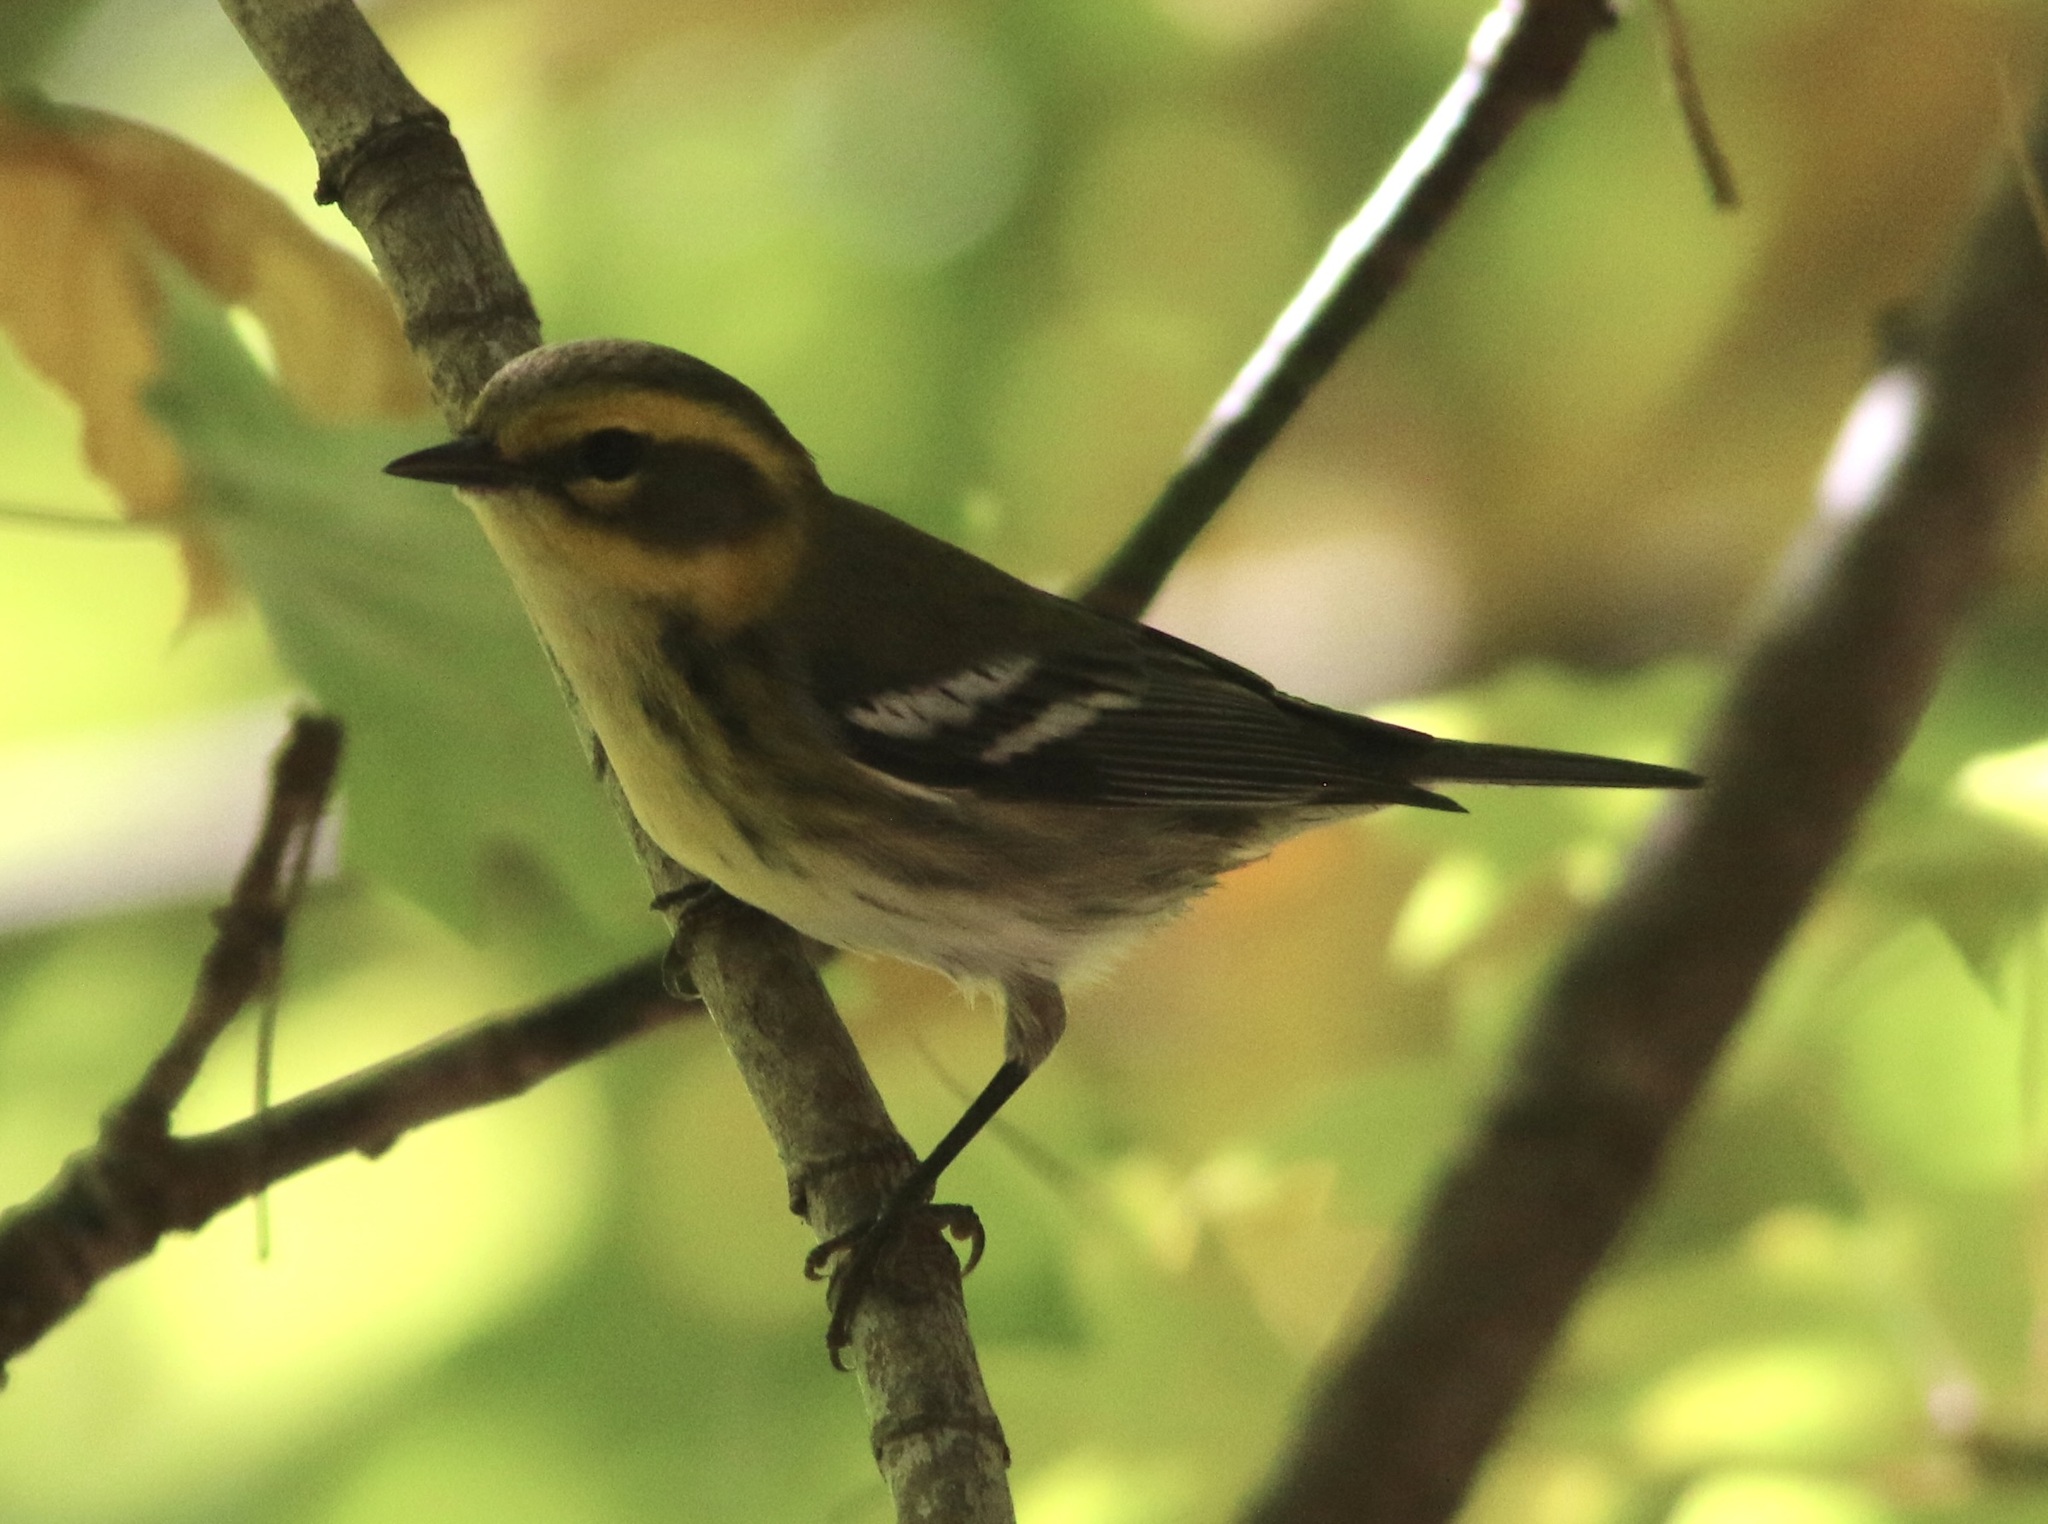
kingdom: Animalia
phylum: Chordata
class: Aves
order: Passeriformes
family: Parulidae
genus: Setophaga
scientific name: Setophaga townsendi
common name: Townsend's warbler
